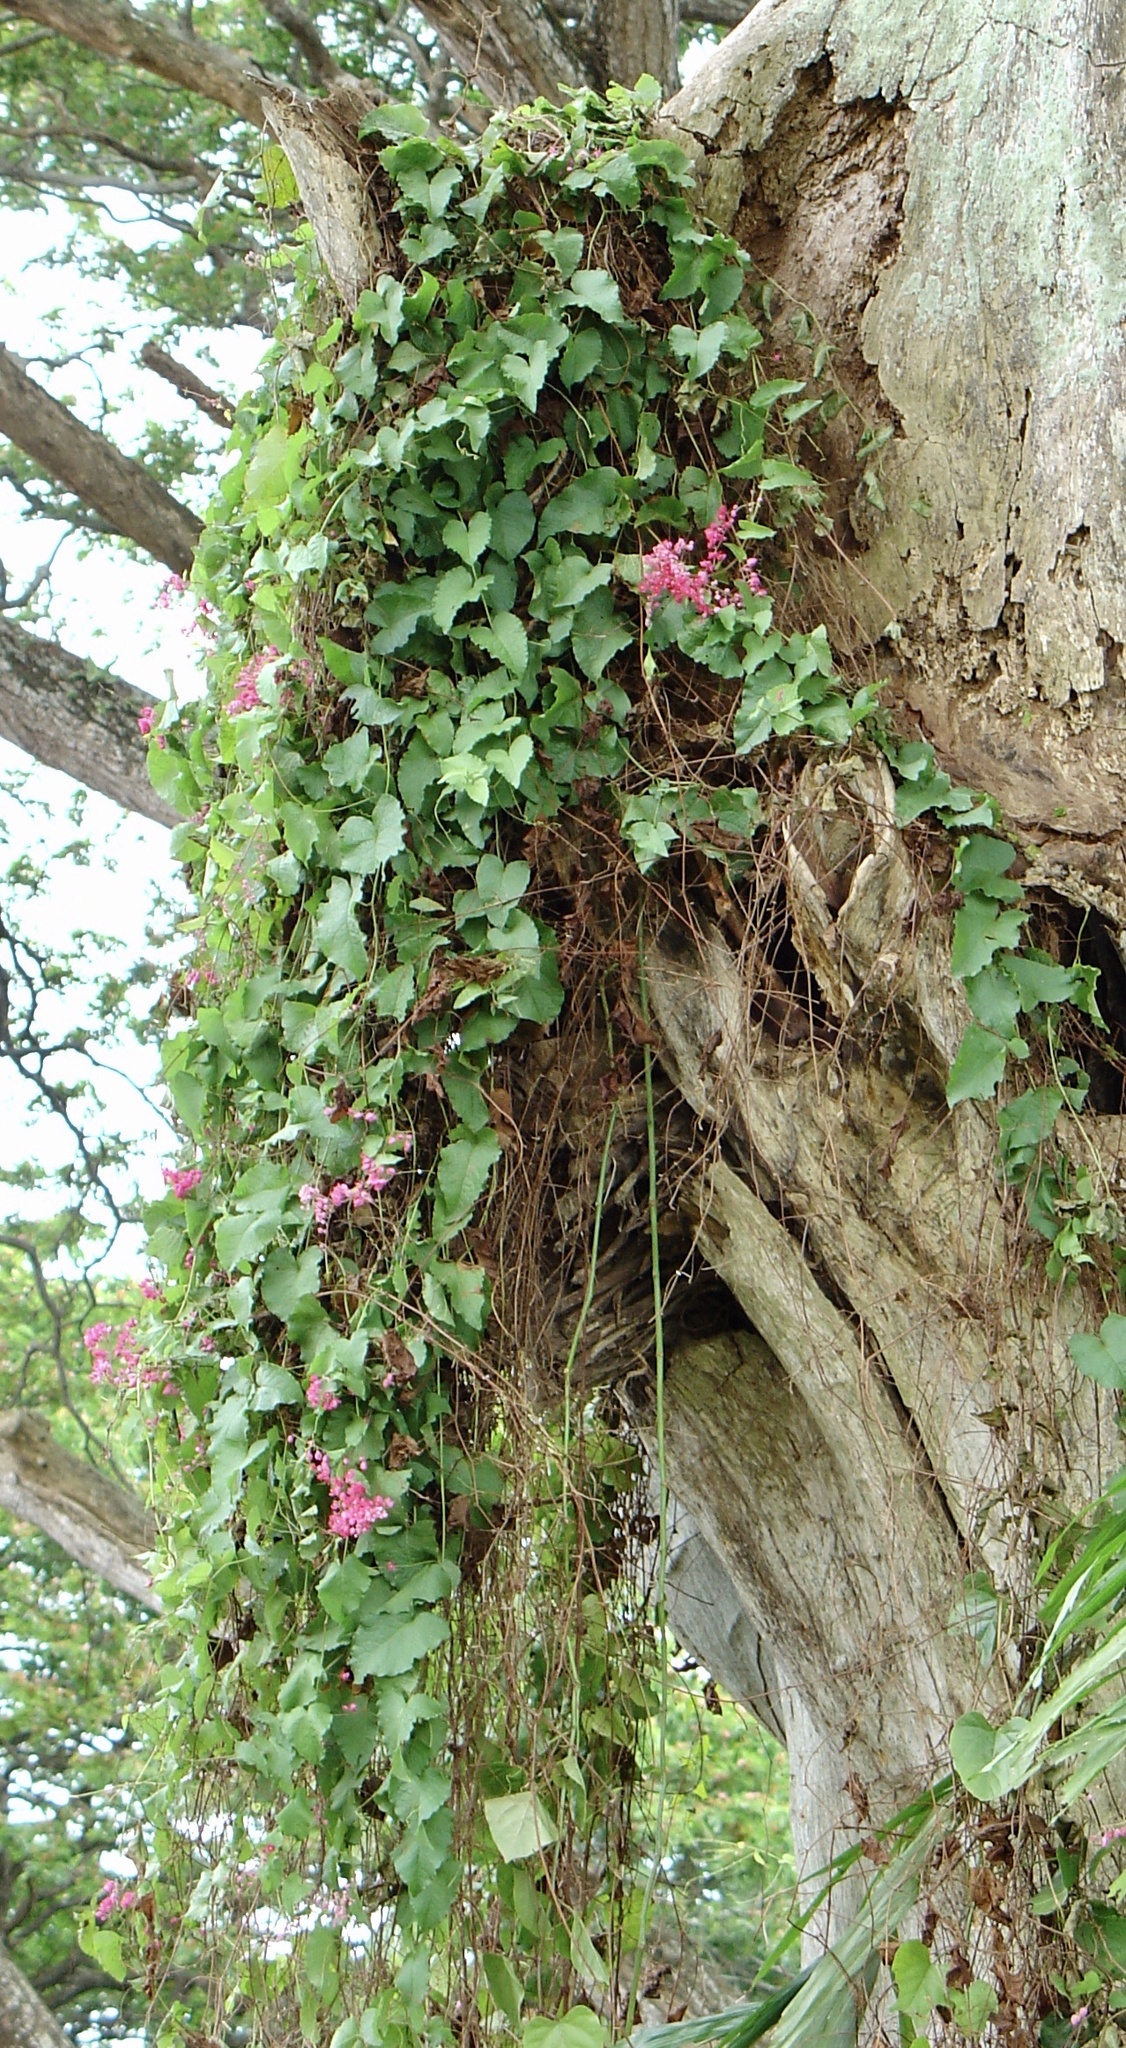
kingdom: Plantae
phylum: Tracheophyta
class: Magnoliopsida
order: Caryophyllales
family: Polygonaceae
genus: Antigonon
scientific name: Antigonon leptopus
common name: Coral vine
